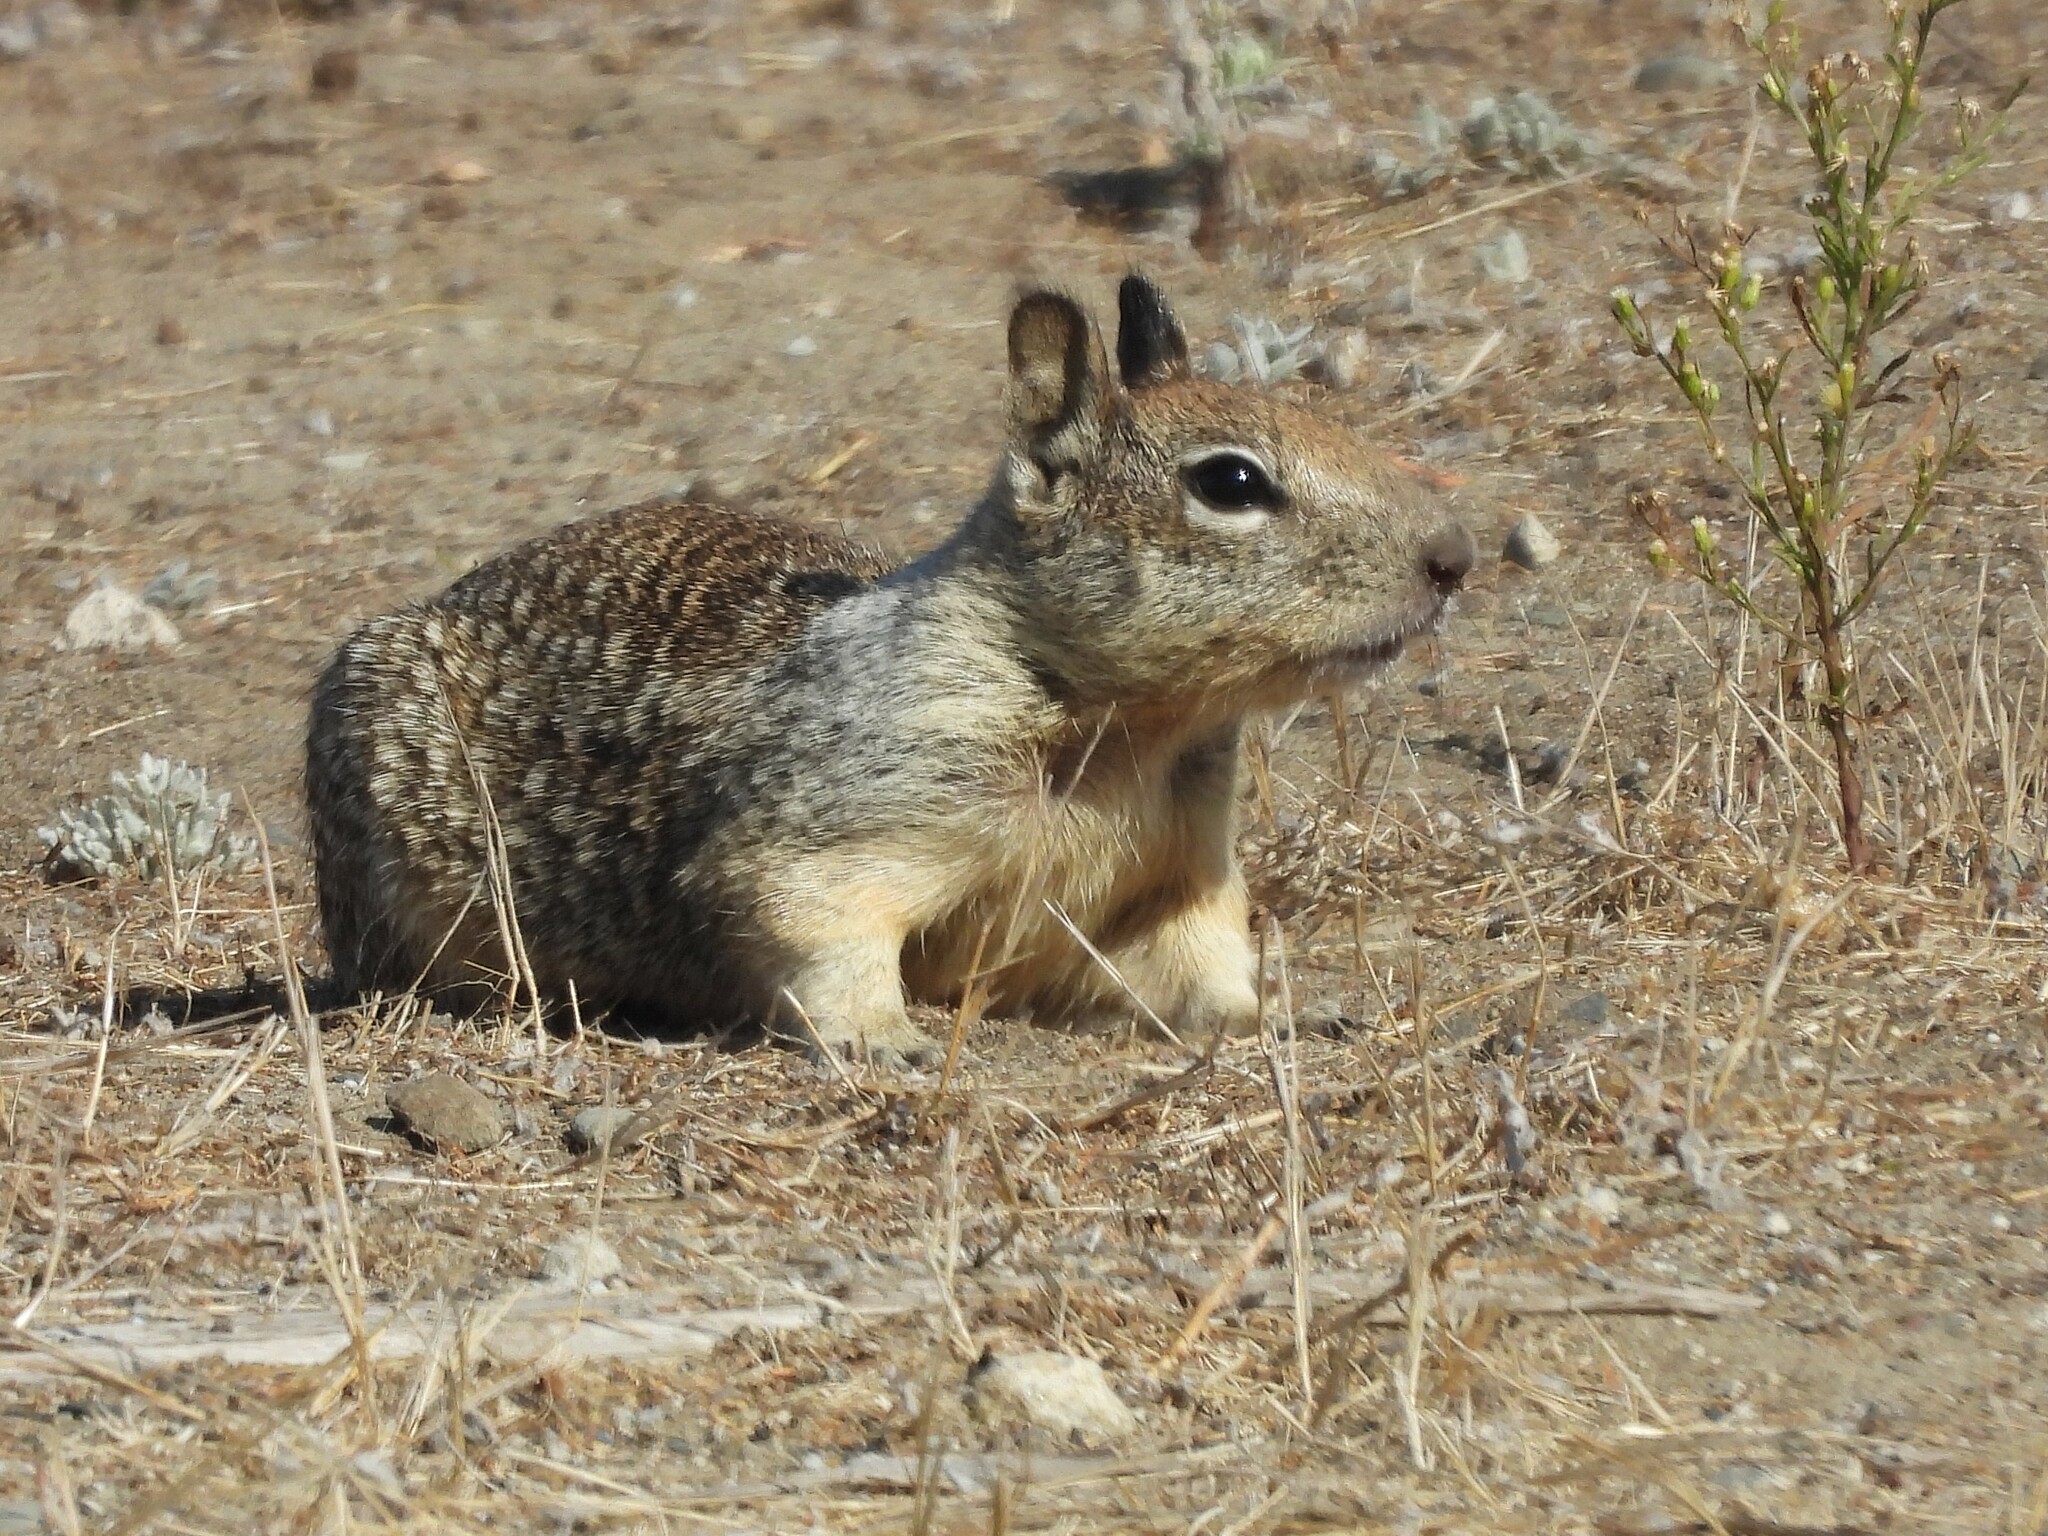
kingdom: Animalia
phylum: Chordata
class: Mammalia
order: Rodentia
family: Sciuridae
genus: Otospermophilus
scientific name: Otospermophilus beecheyi
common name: California ground squirrel
